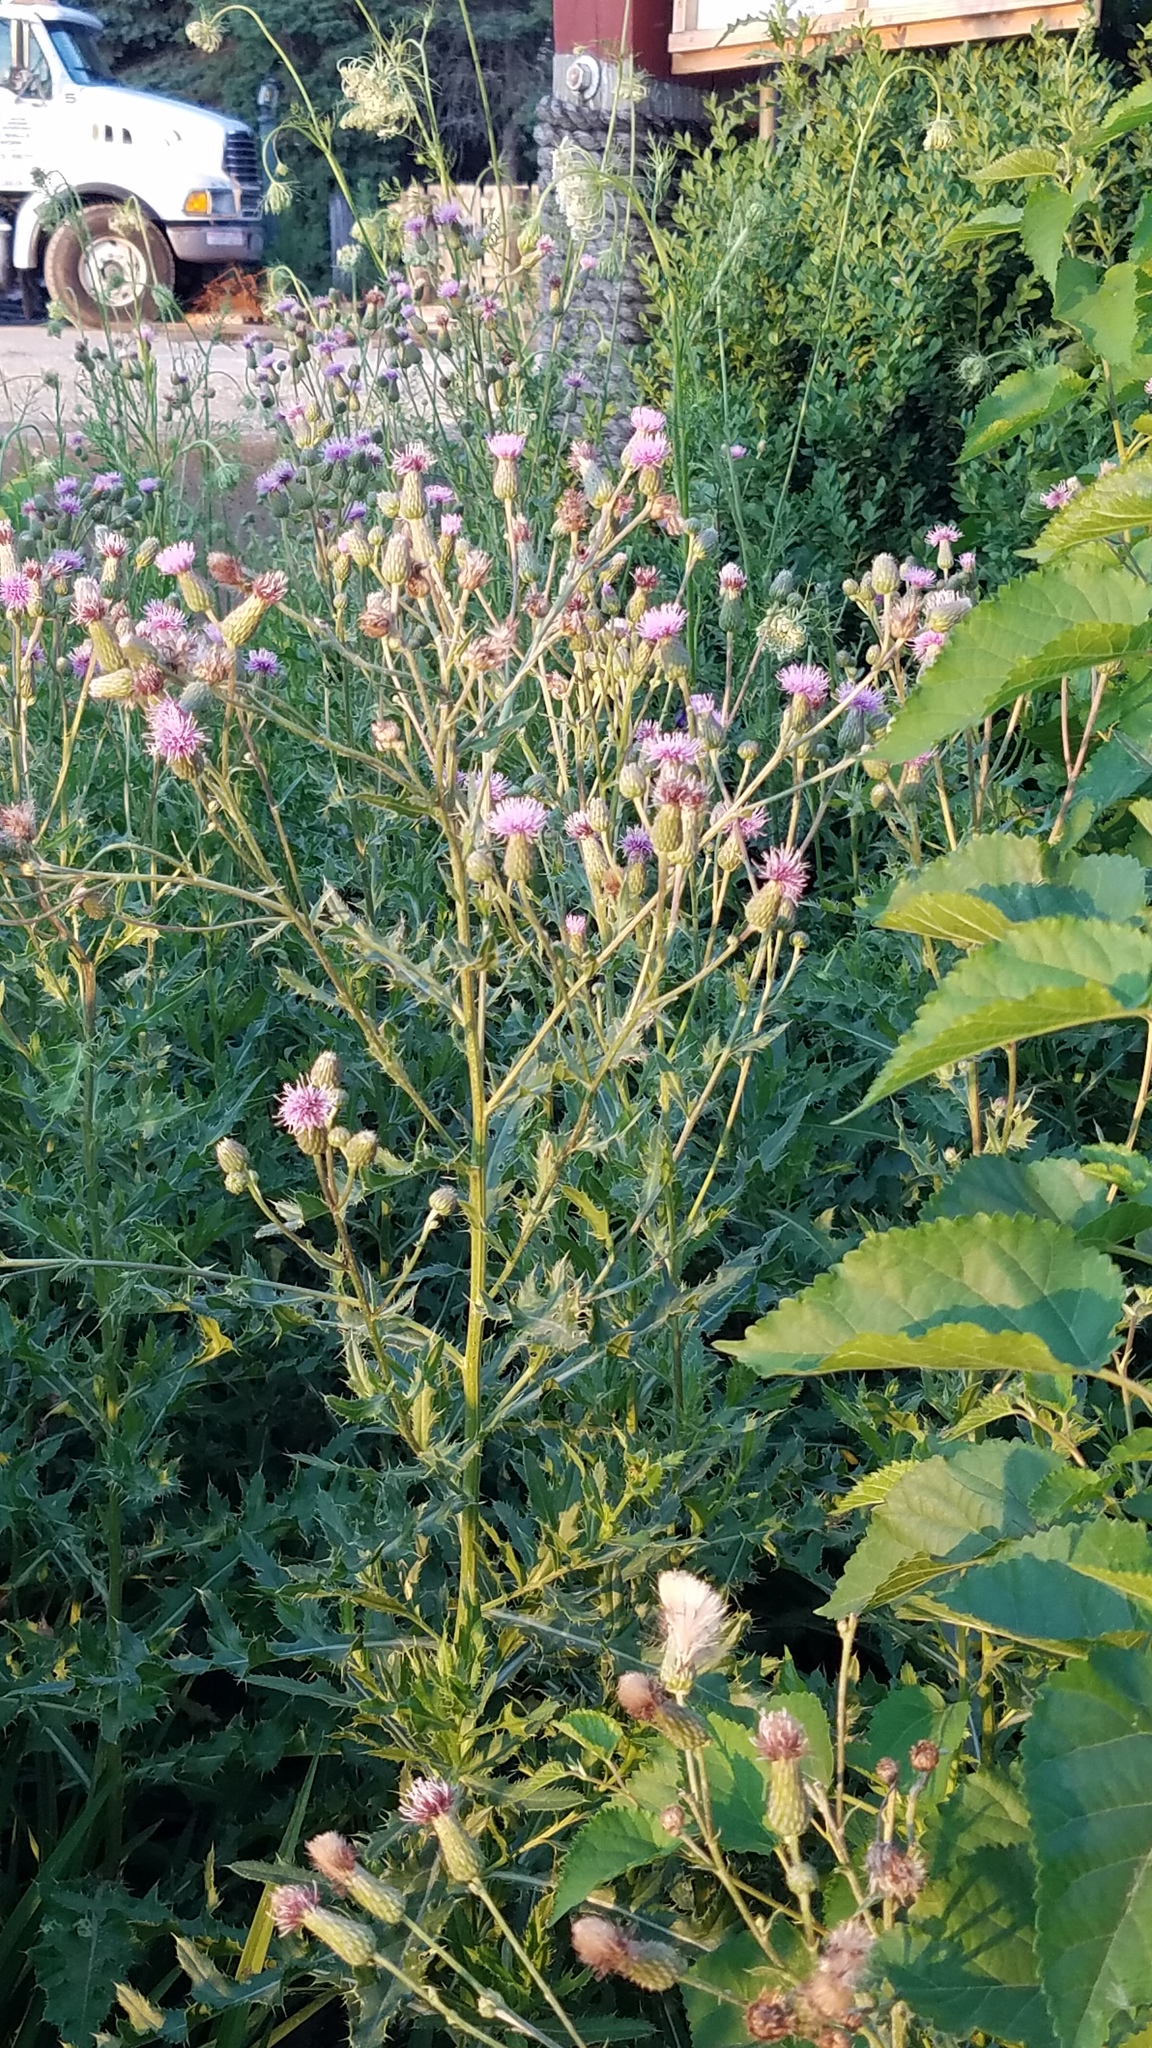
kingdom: Plantae
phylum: Tracheophyta
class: Magnoliopsida
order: Asterales
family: Asteraceae
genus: Cirsium
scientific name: Cirsium arvense
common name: Creeping thistle
